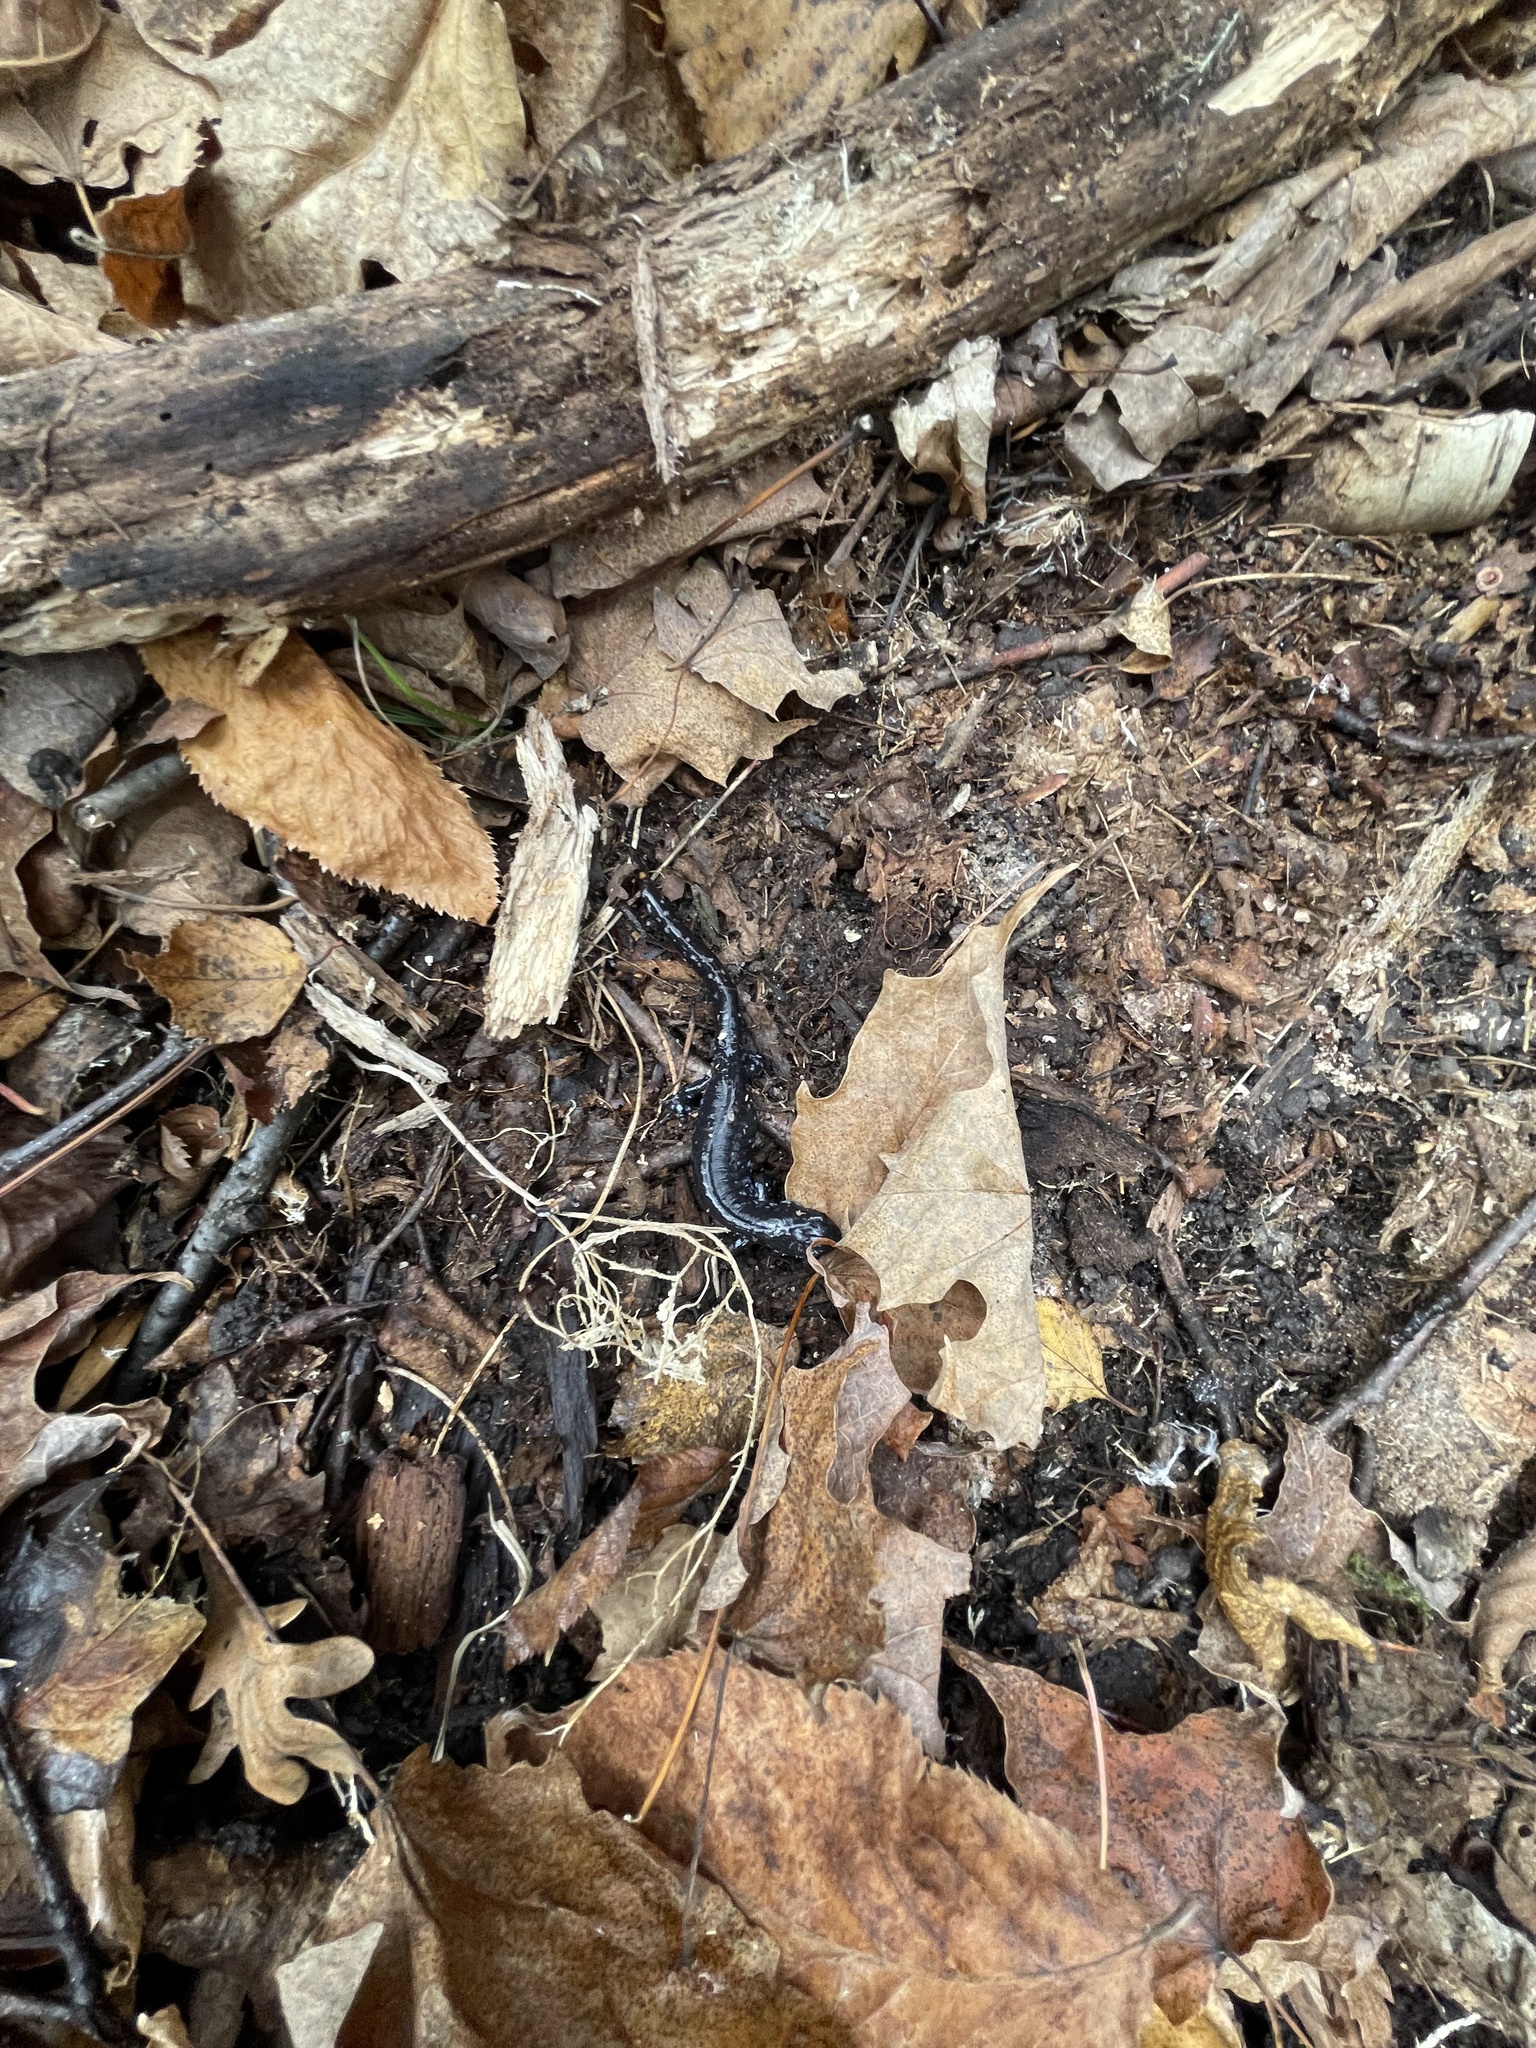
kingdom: Animalia
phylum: Chordata
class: Amphibia
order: Caudata
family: Ambystomatidae
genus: Ambystoma
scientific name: Ambystoma laterale
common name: Blue-spotted salamander
